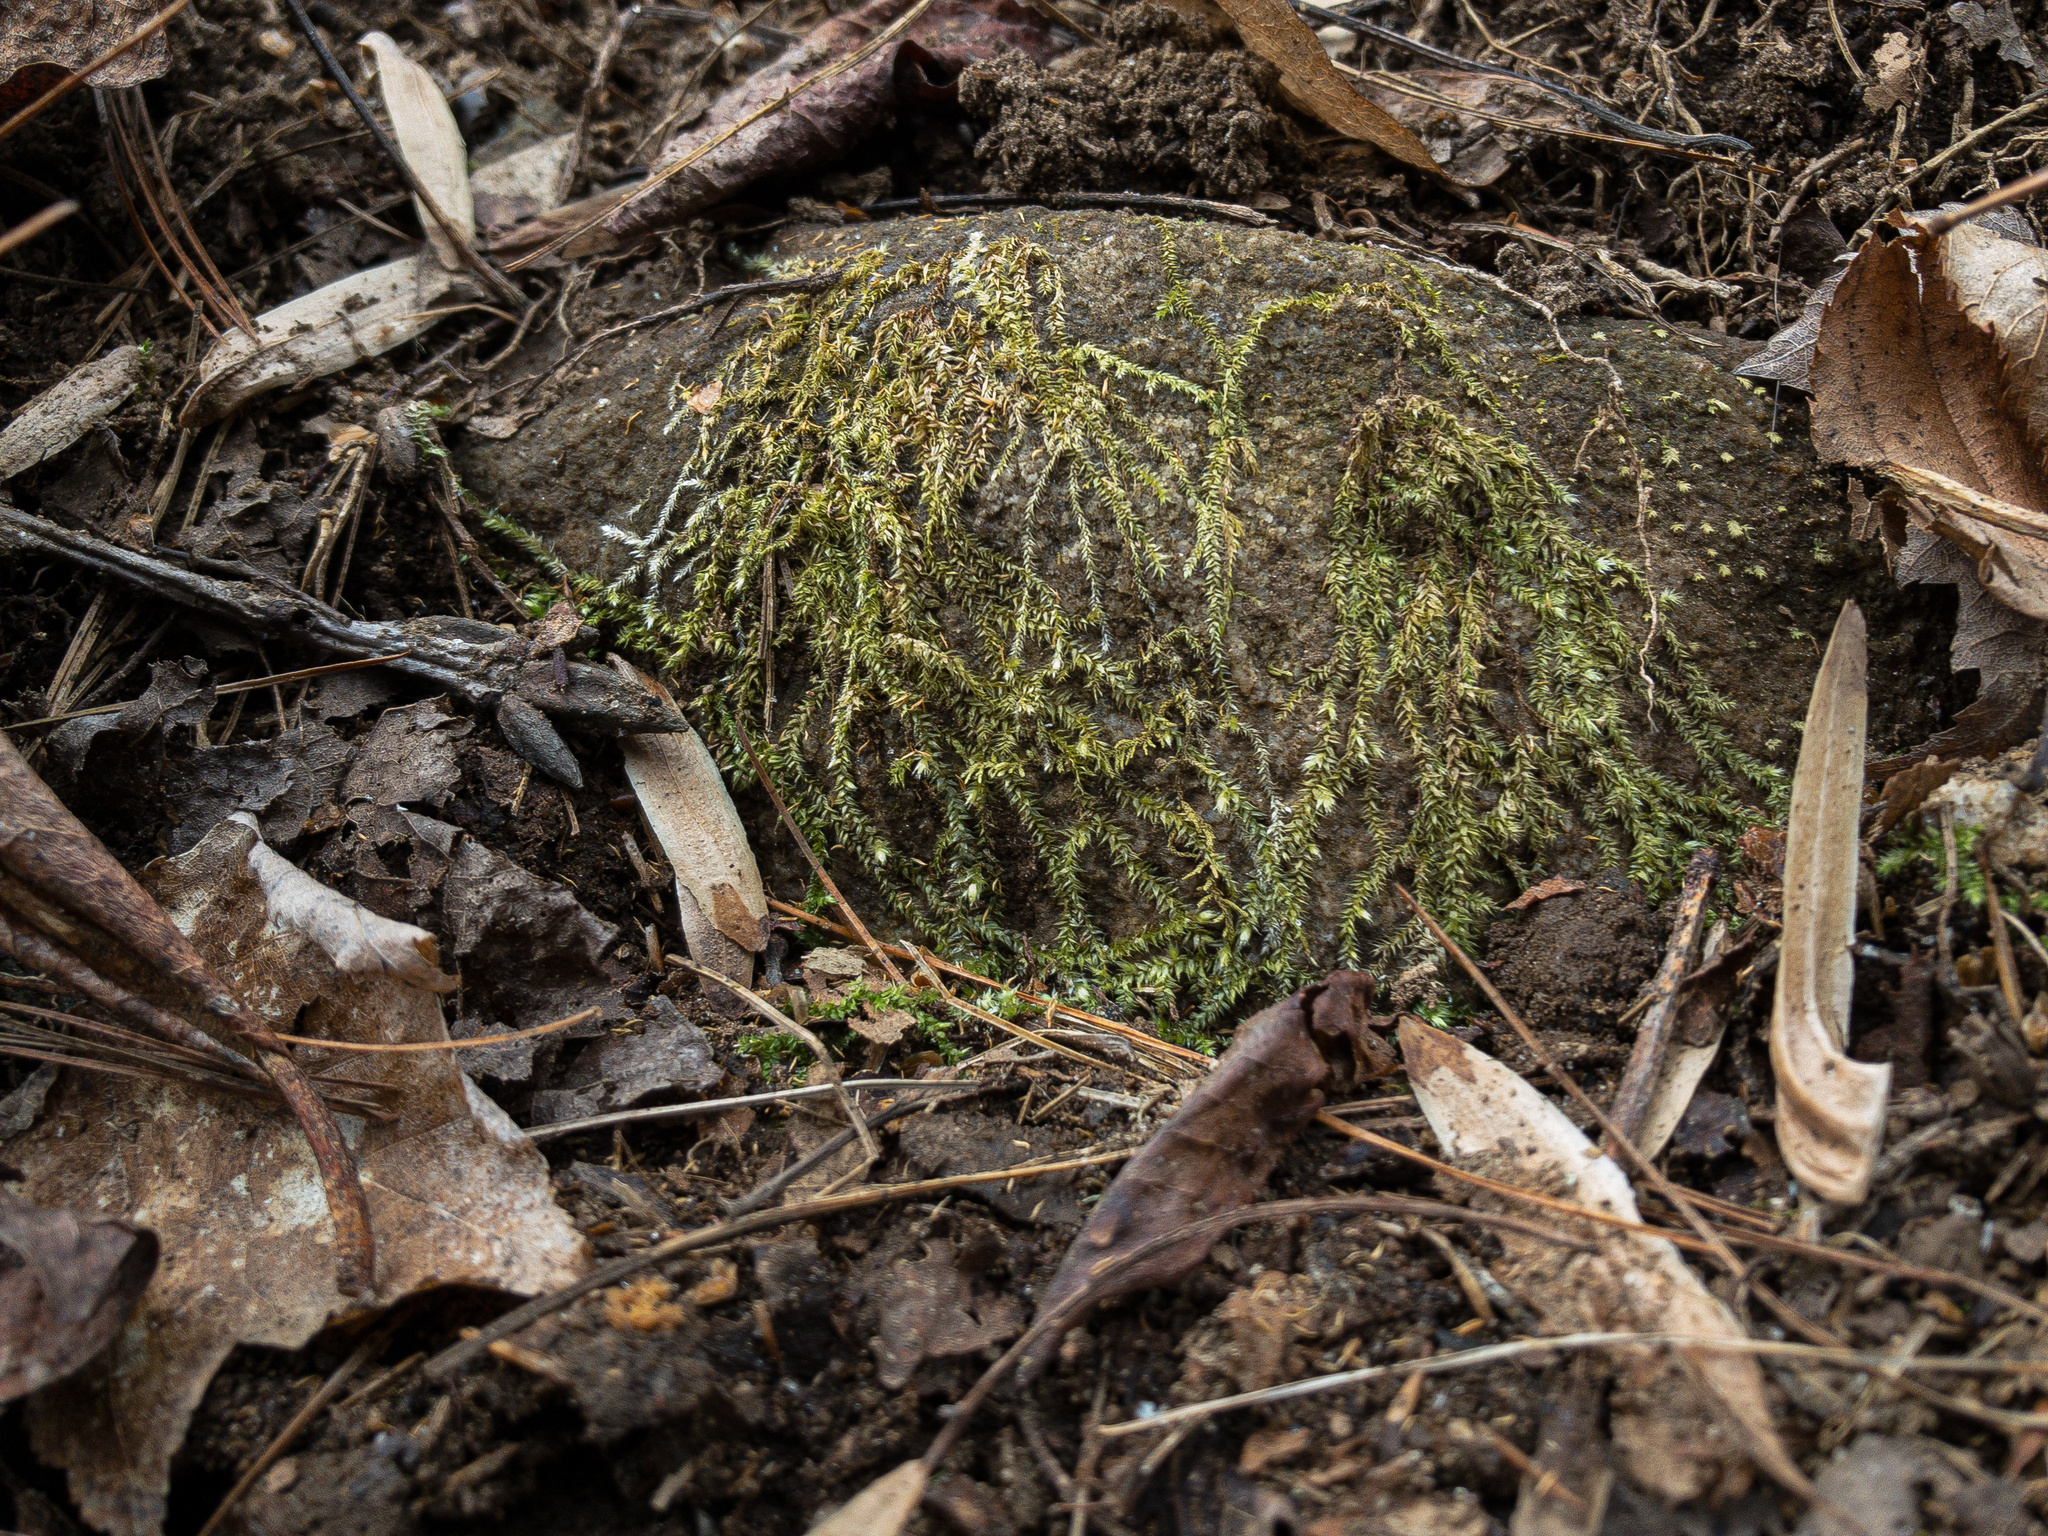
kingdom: Plantae
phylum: Bryophyta
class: Bryopsida
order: Hypnales
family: Brachytheciaceae
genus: Koponeniella
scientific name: Koponeniella graminicolor
